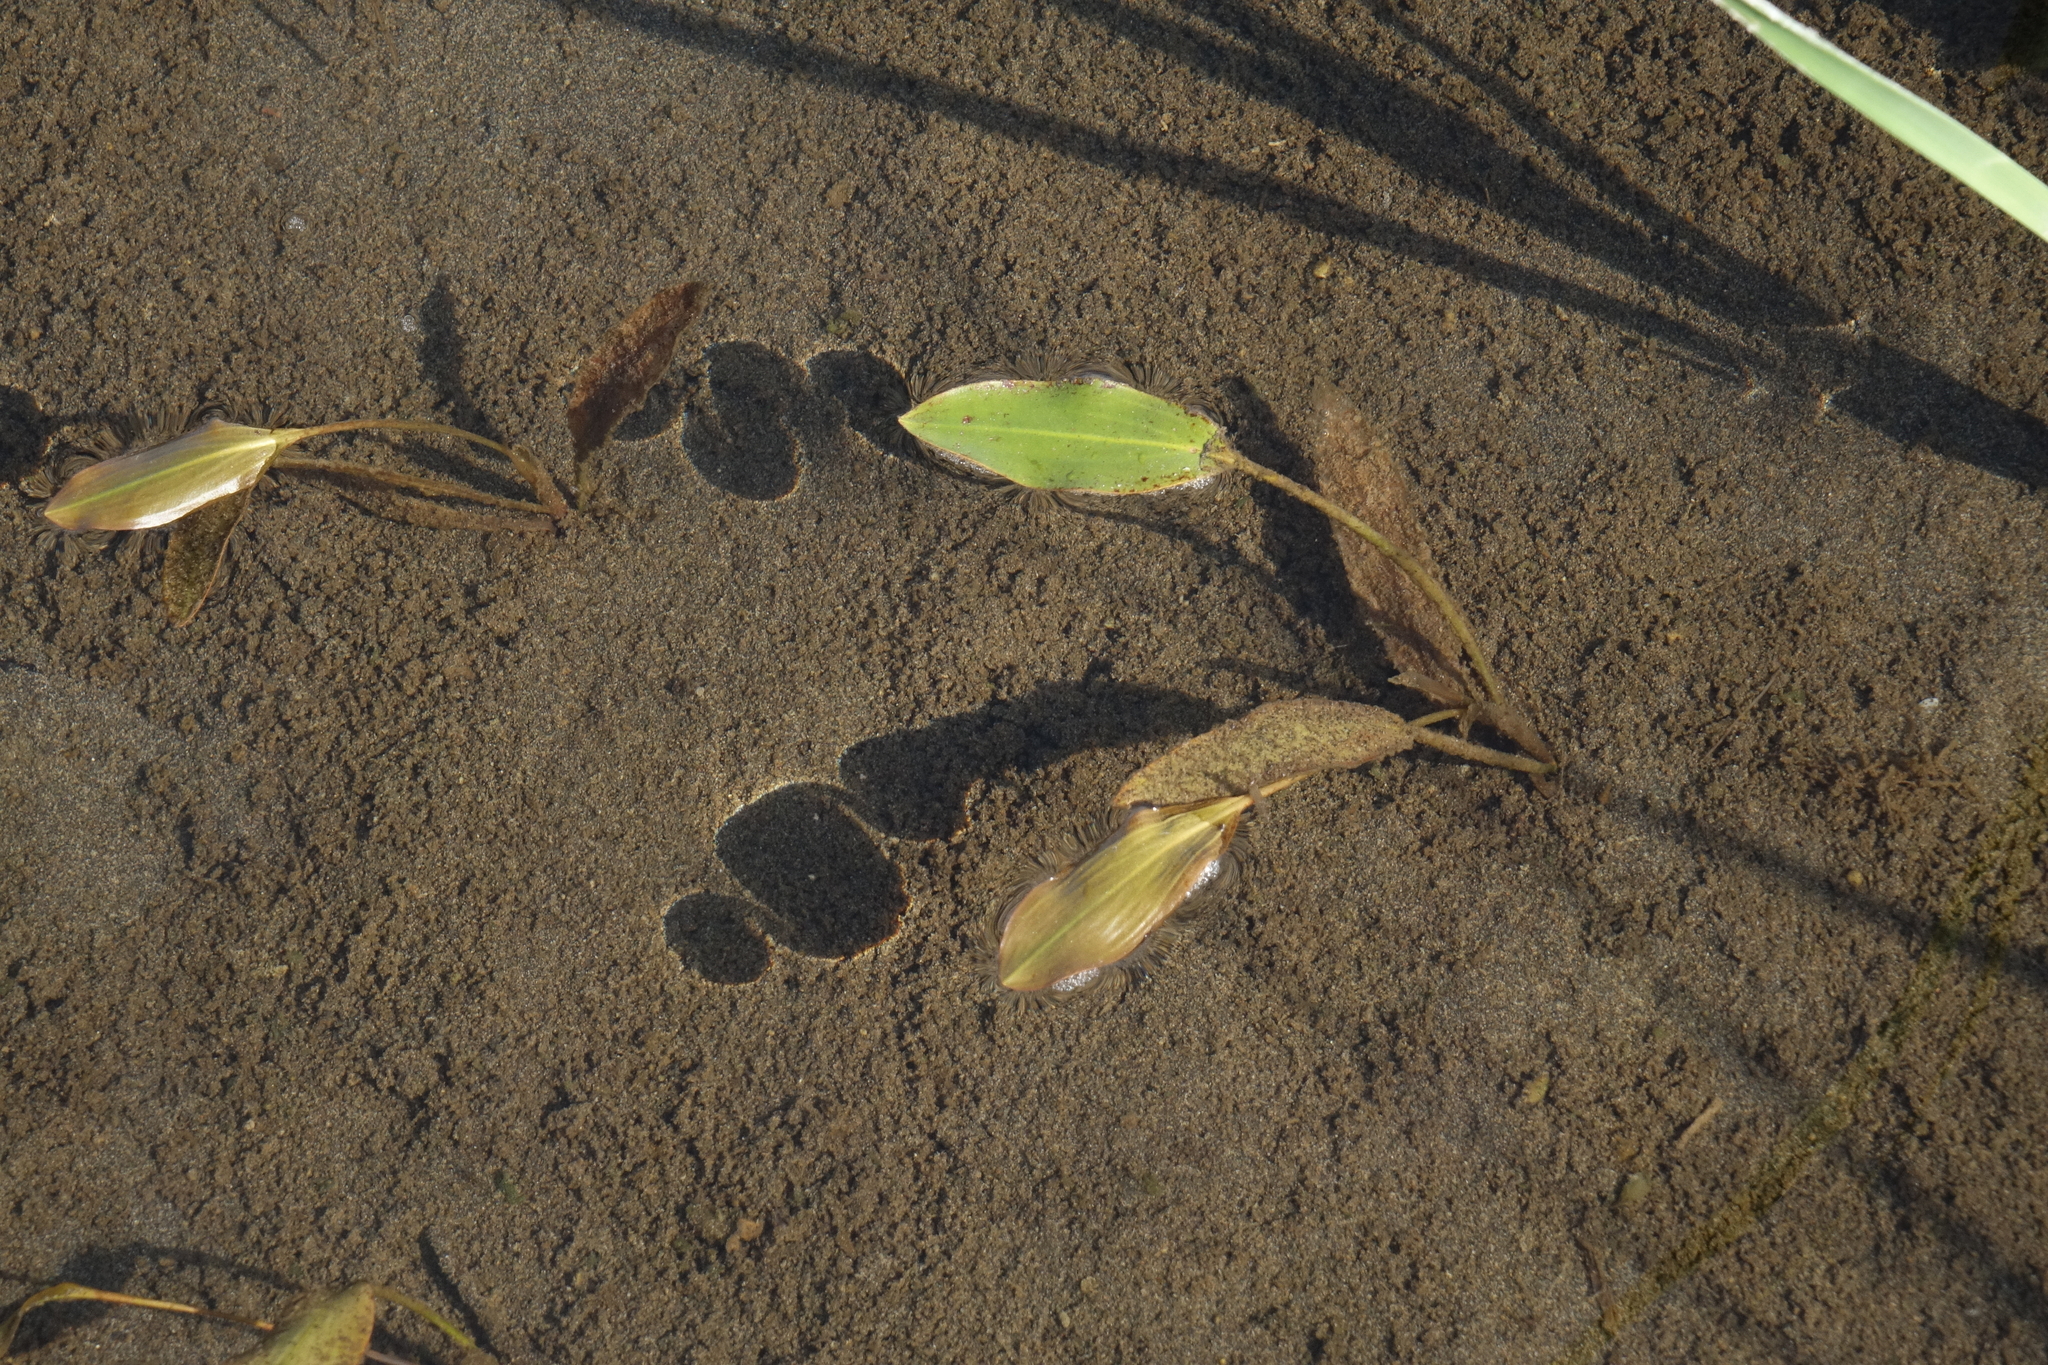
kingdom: Plantae
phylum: Tracheophyta
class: Liliopsida
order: Alismatales
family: Potamogetonaceae
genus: Potamogeton
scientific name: Potamogeton nodosus
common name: Loddon pondweed
